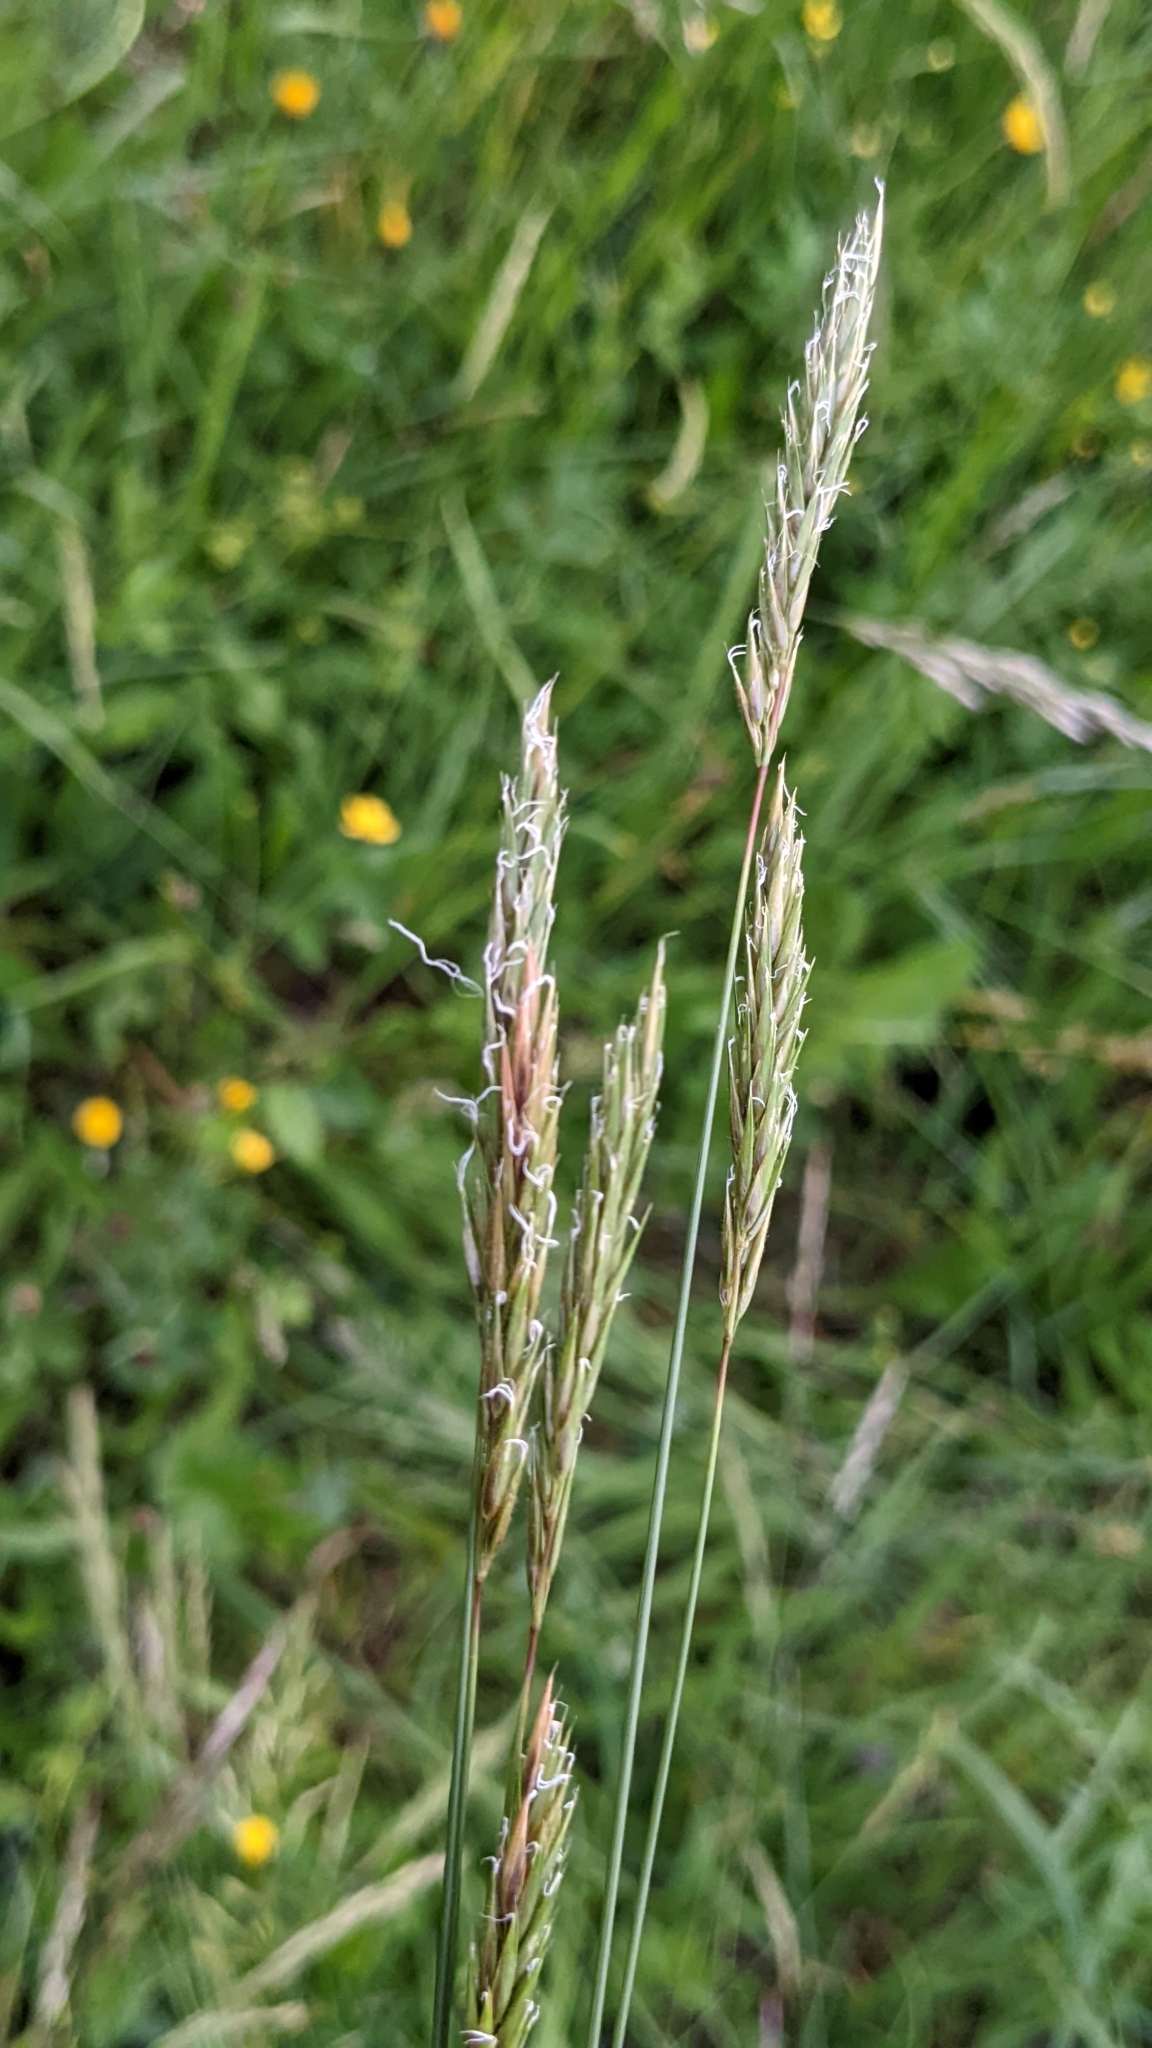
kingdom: Plantae
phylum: Tracheophyta
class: Liliopsida
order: Poales
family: Poaceae
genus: Anthoxanthum
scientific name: Anthoxanthum odoratum
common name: Sweet vernalgrass
